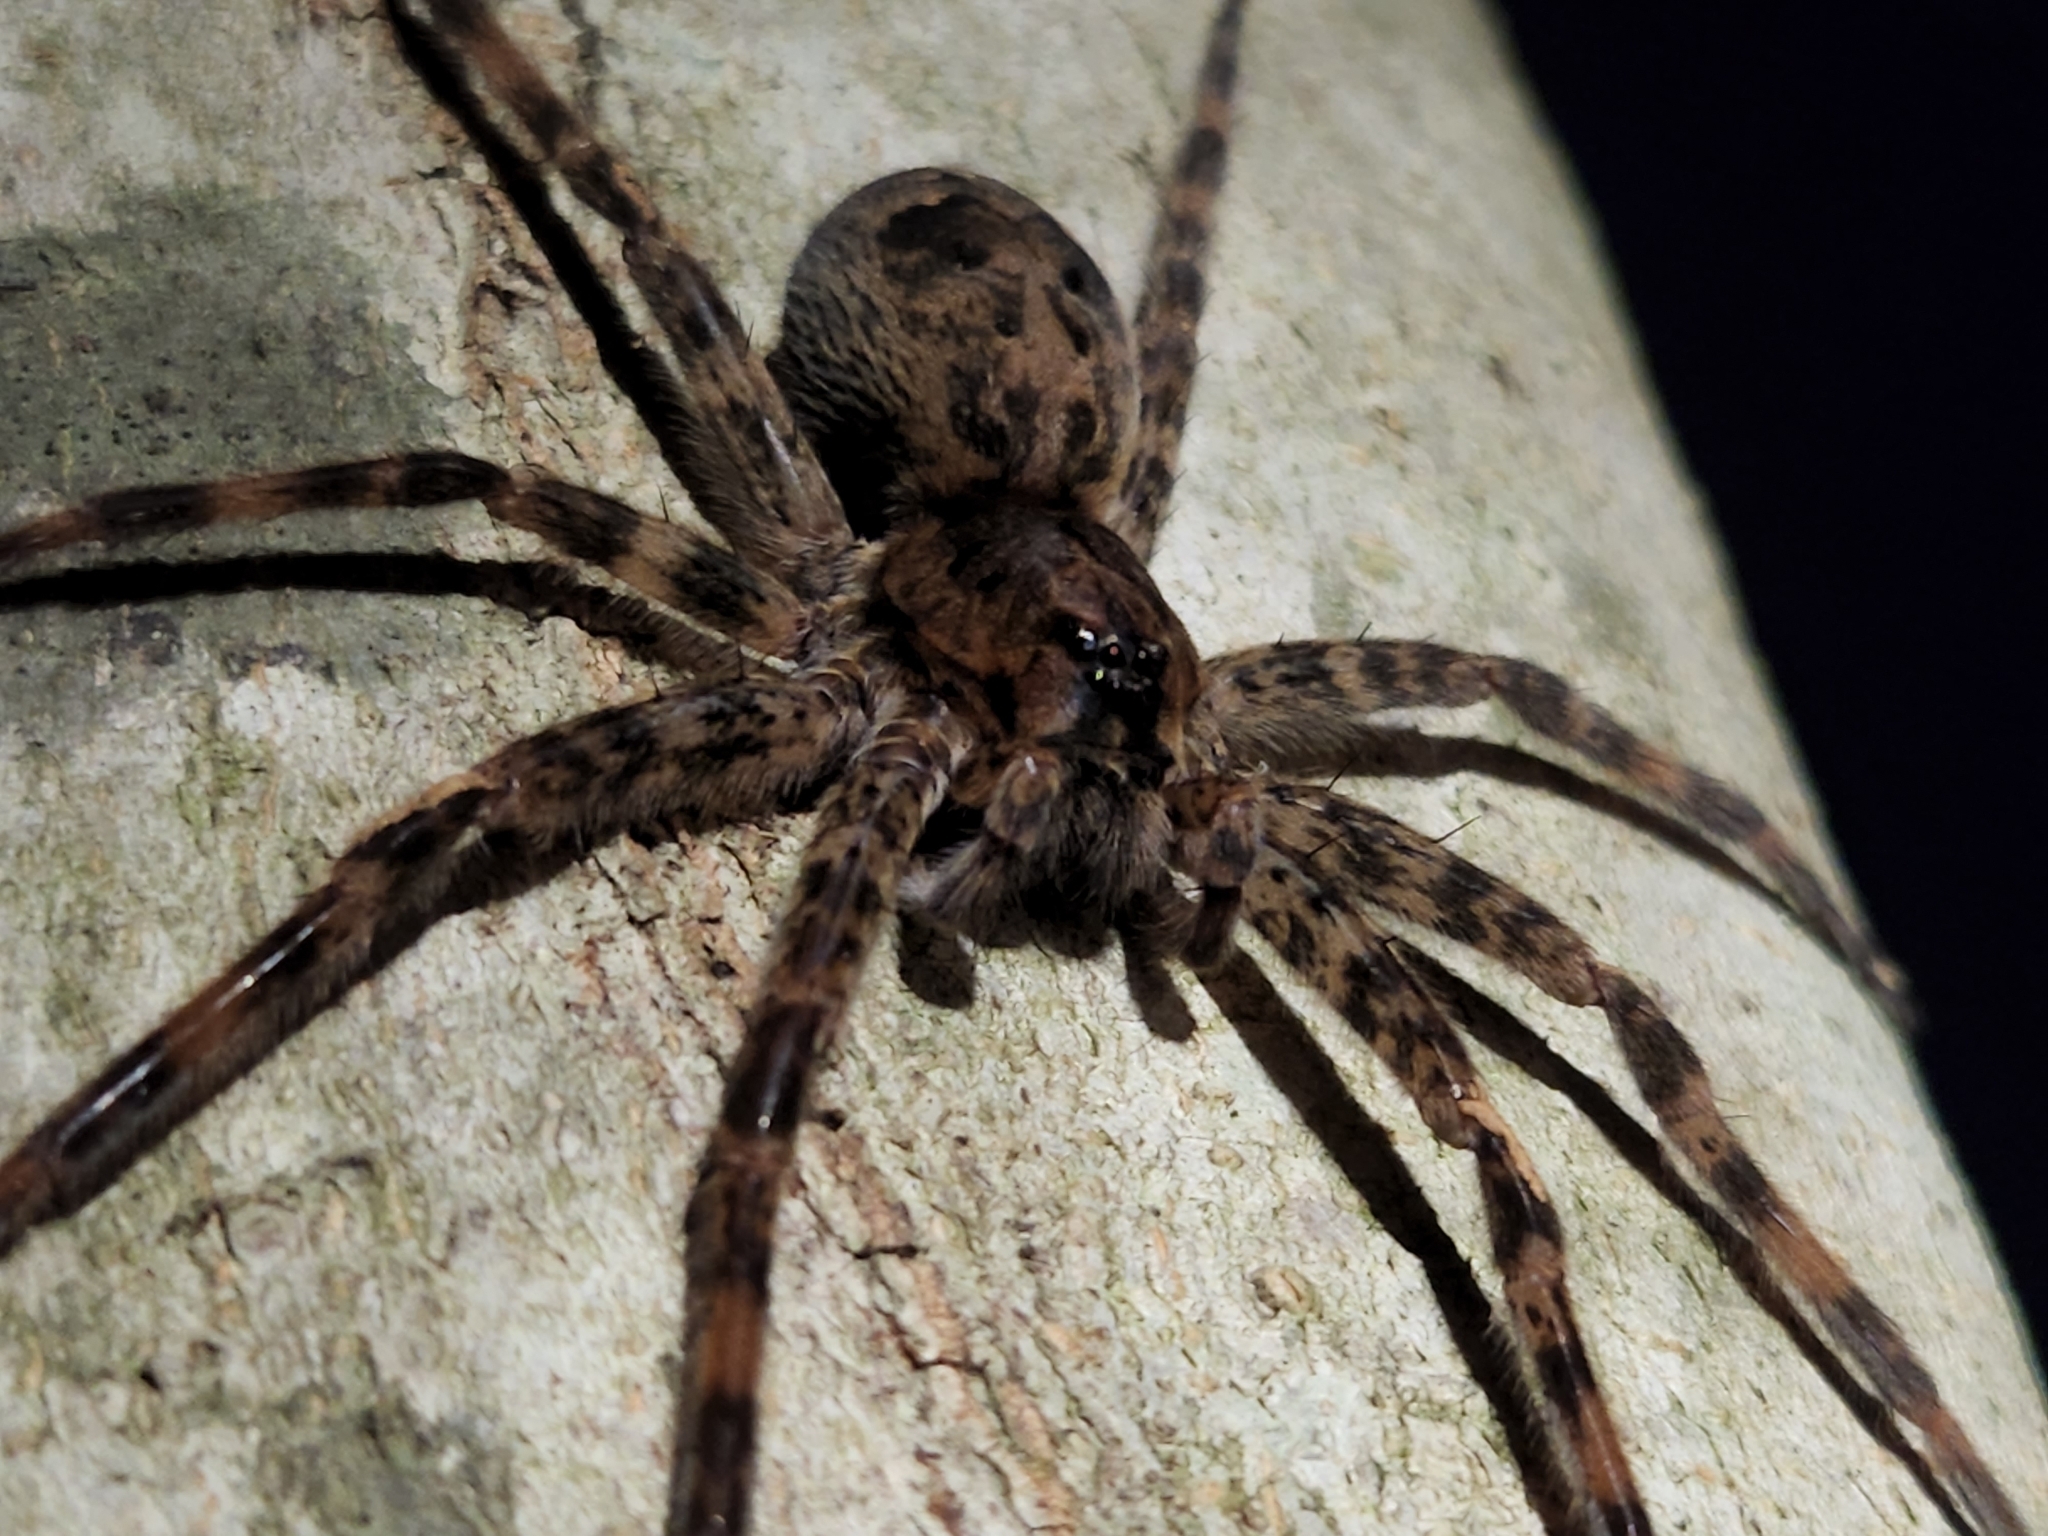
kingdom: Animalia
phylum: Arthropoda
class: Arachnida
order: Araneae
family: Pisauridae
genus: Dolomedes
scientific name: Dolomedes tenebrosus
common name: Dark fishing spider
